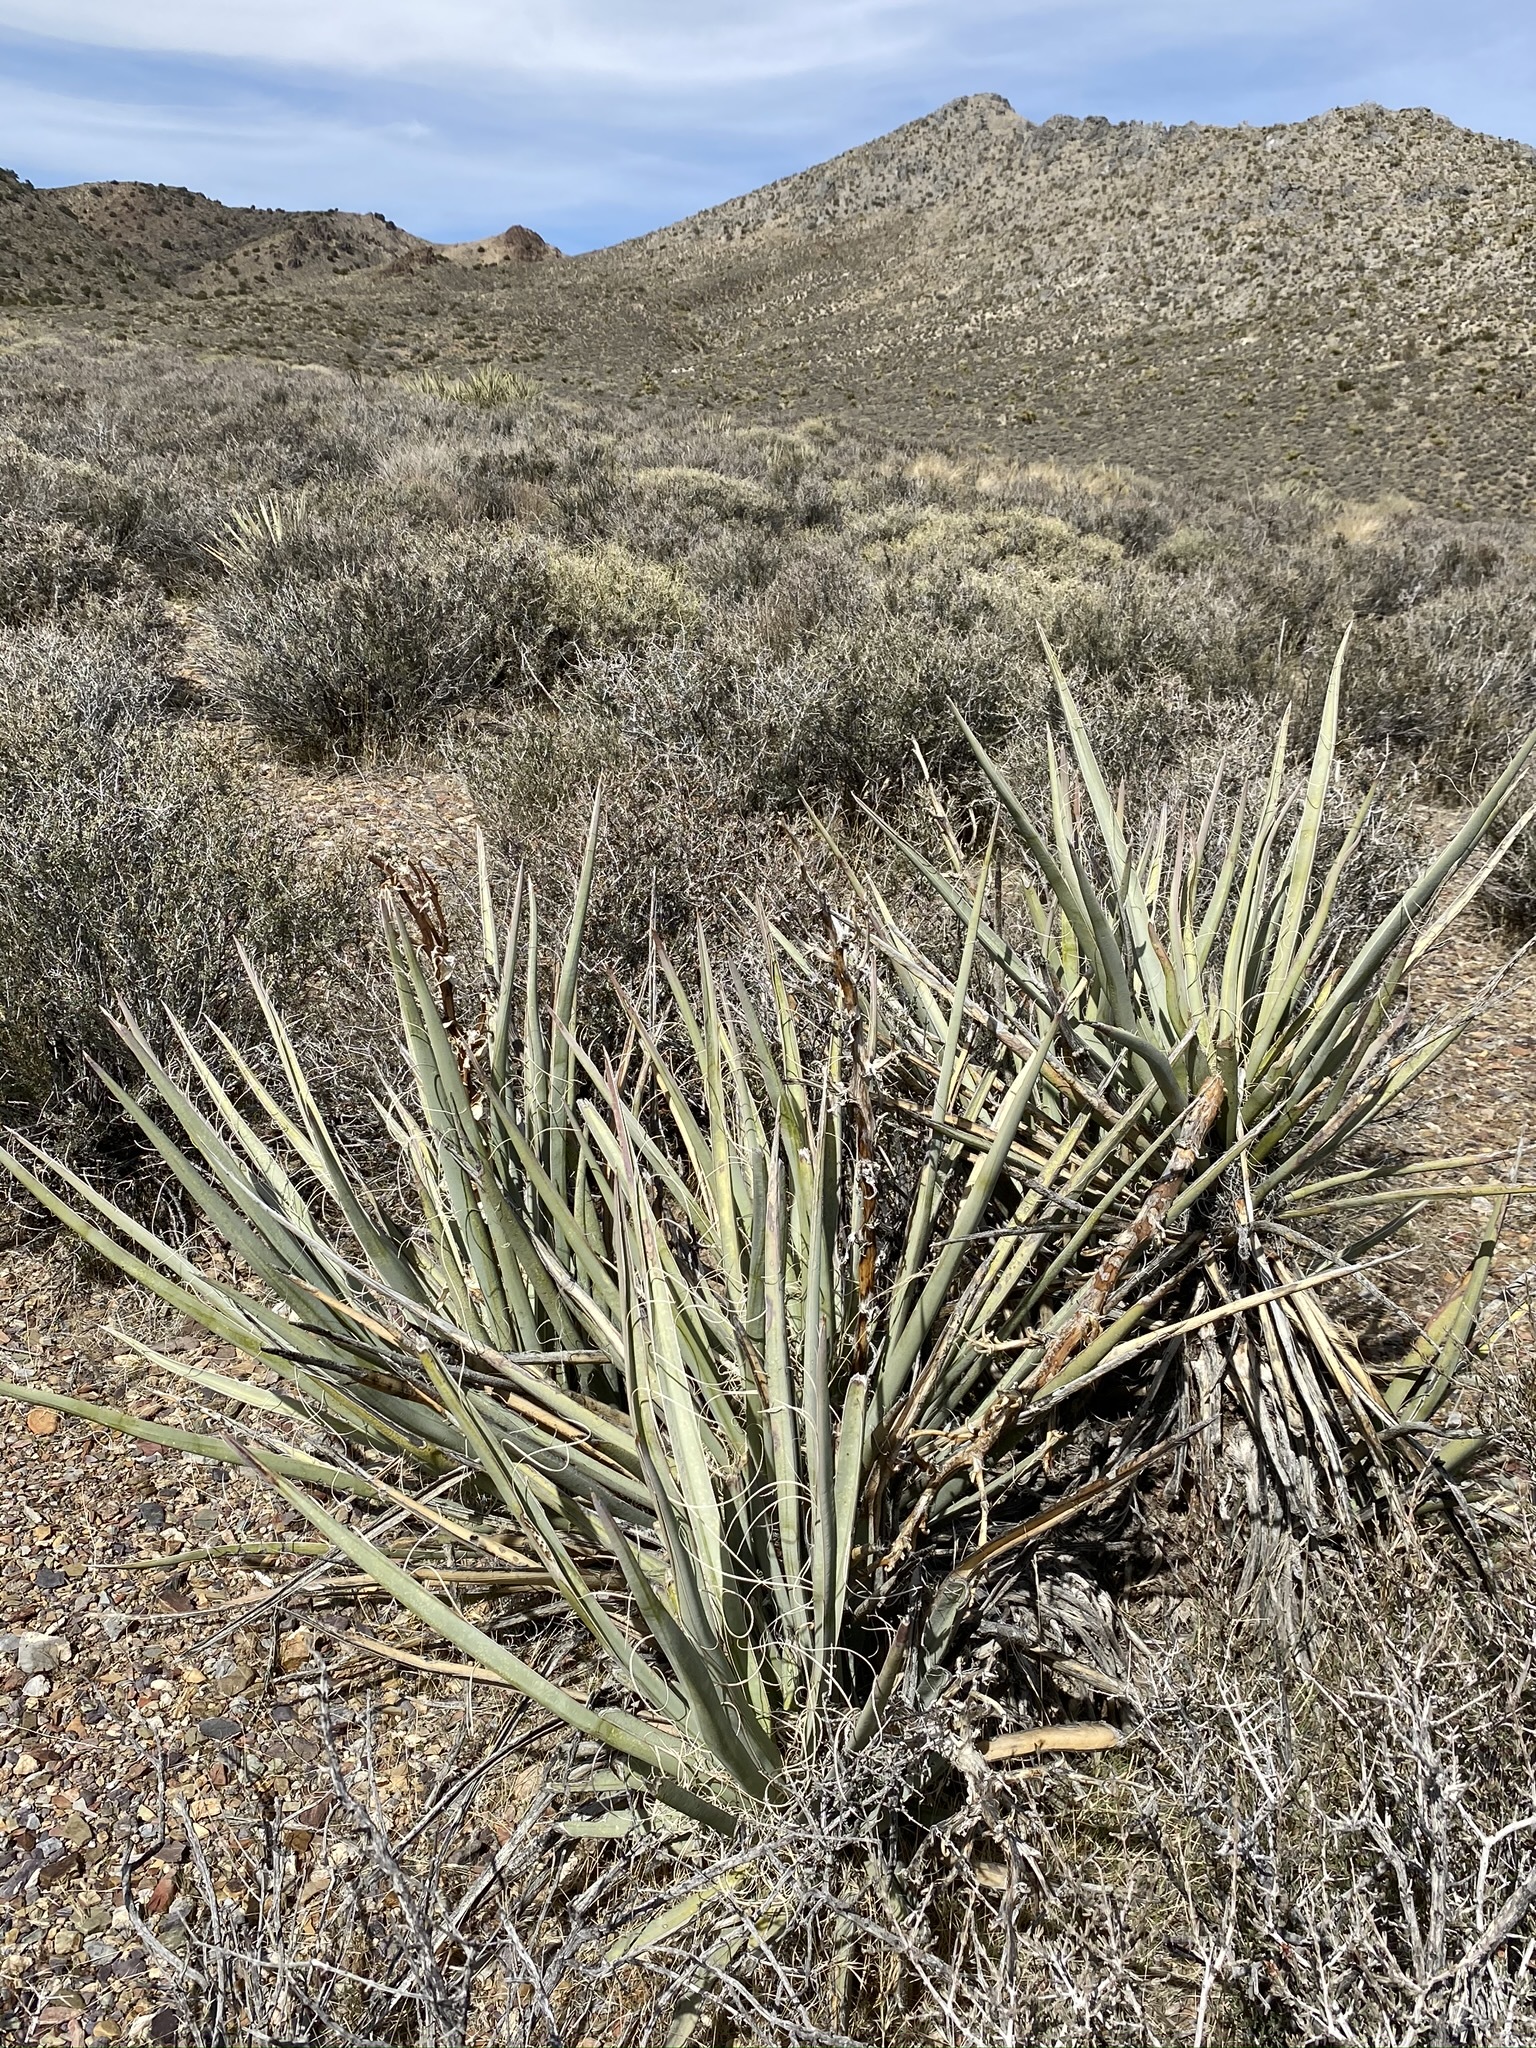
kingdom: Plantae
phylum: Tracheophyta
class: Liliopsida
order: Asparagales
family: Asparagaceae
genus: Yucca
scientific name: Yucca baccata
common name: Banana yucca
